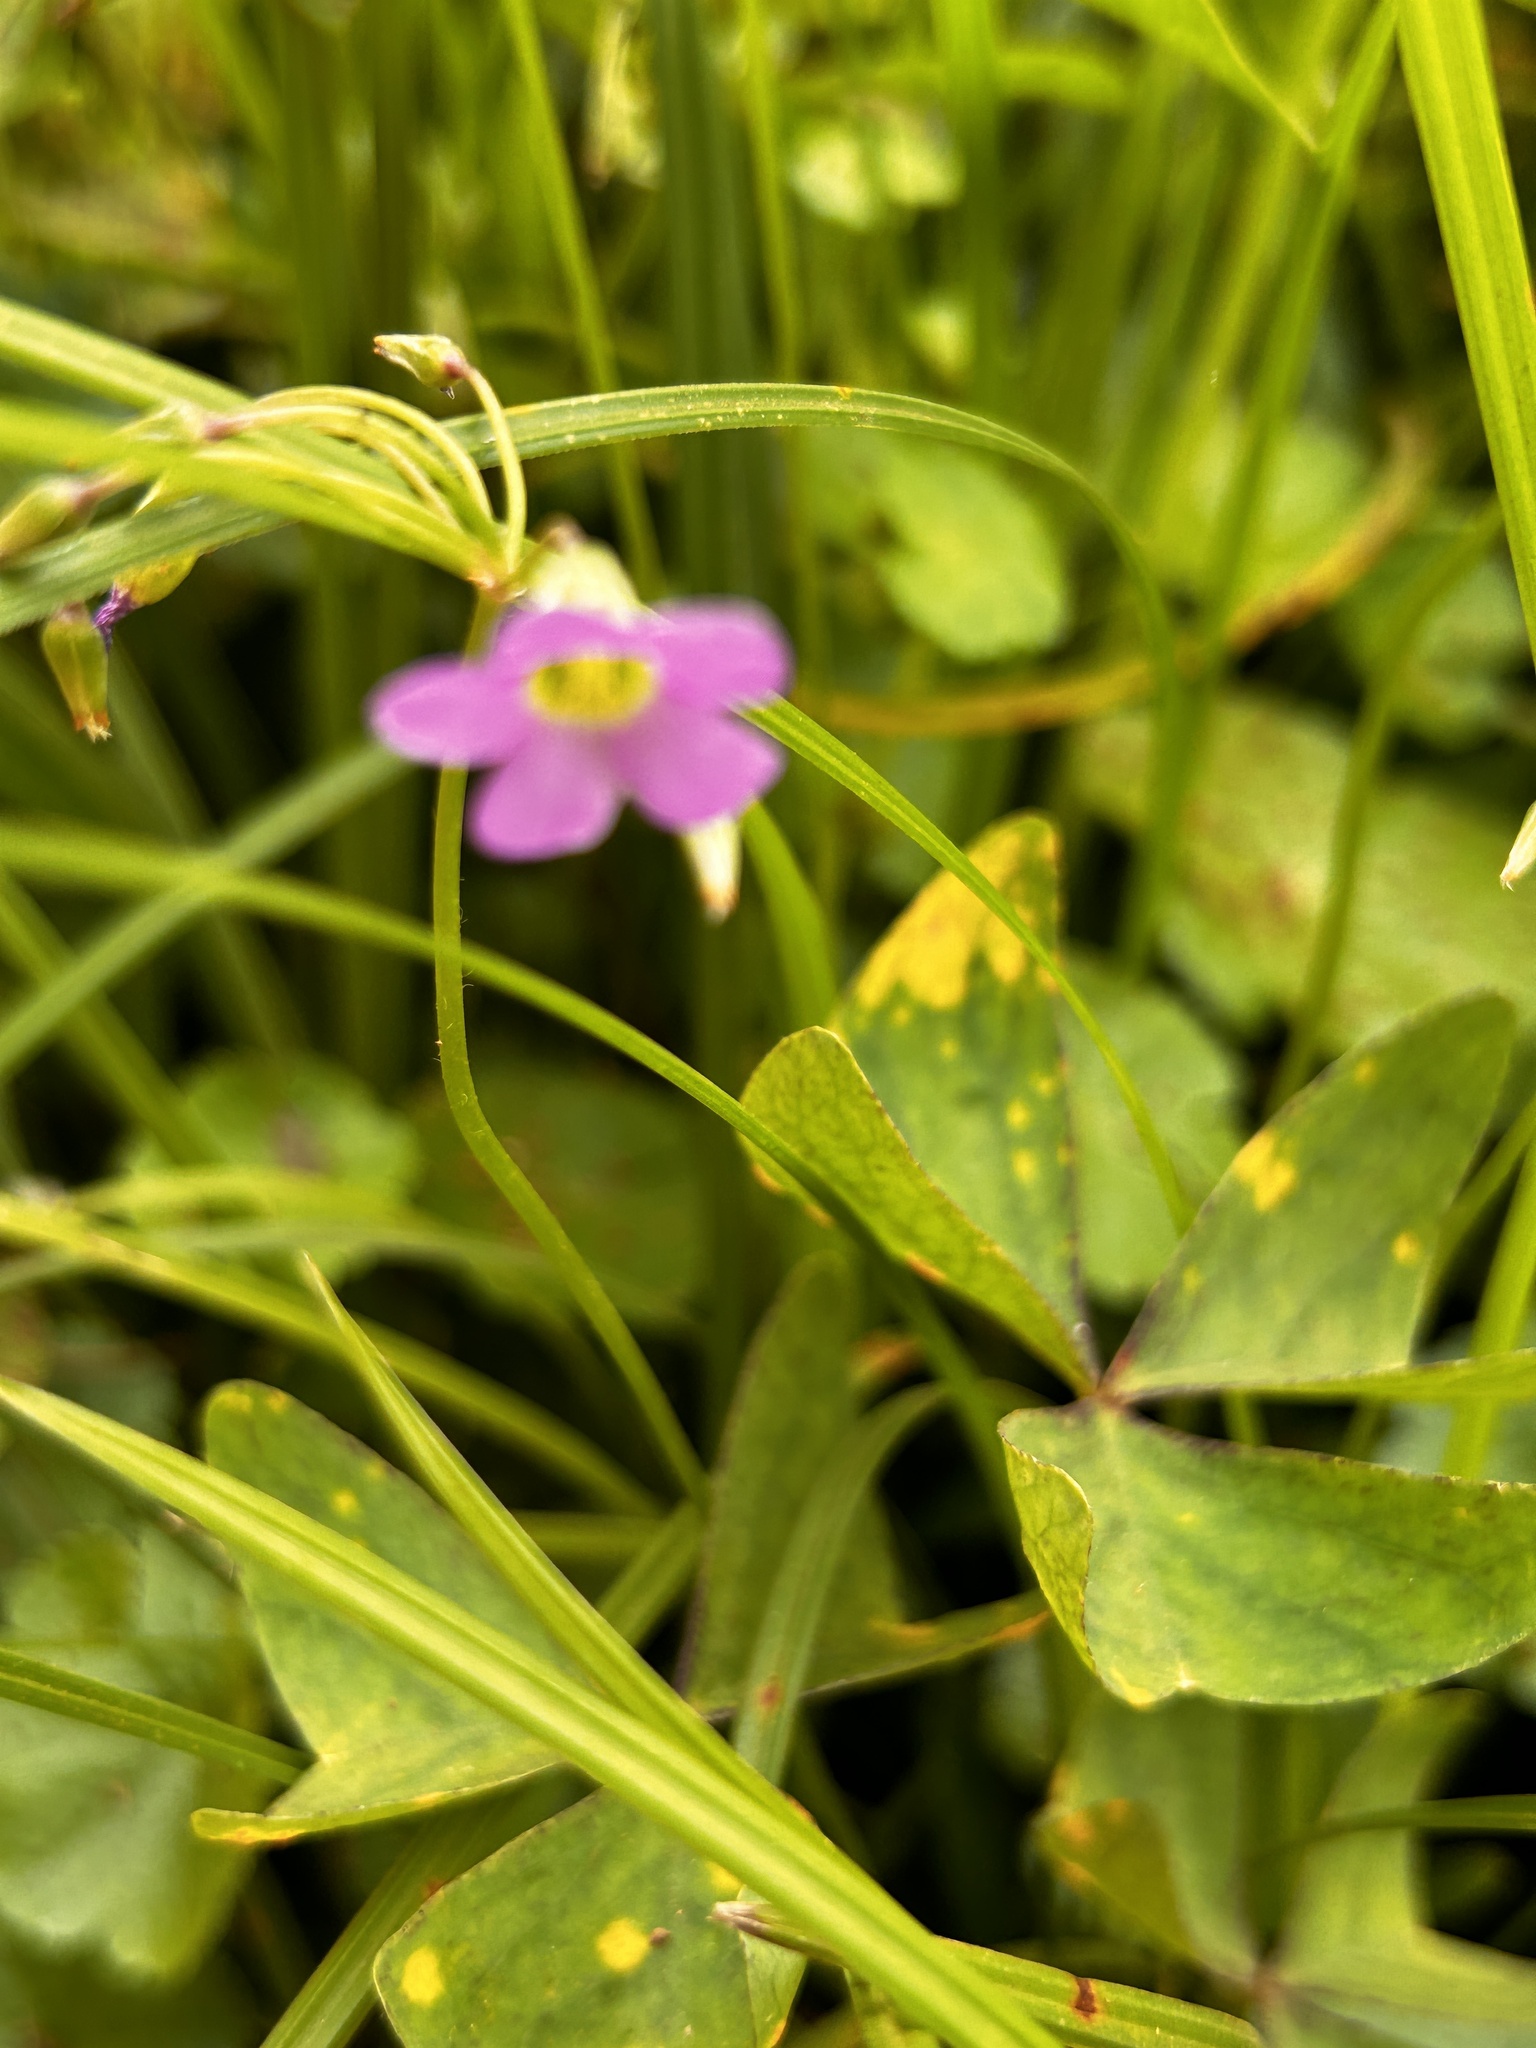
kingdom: Plantae
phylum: Tracheophyta
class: Magnoliopsida
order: Oxalidales
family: Oxalidaceae
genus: Oxalis
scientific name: Oxalis latifolia
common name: Garden pink-sorrel
